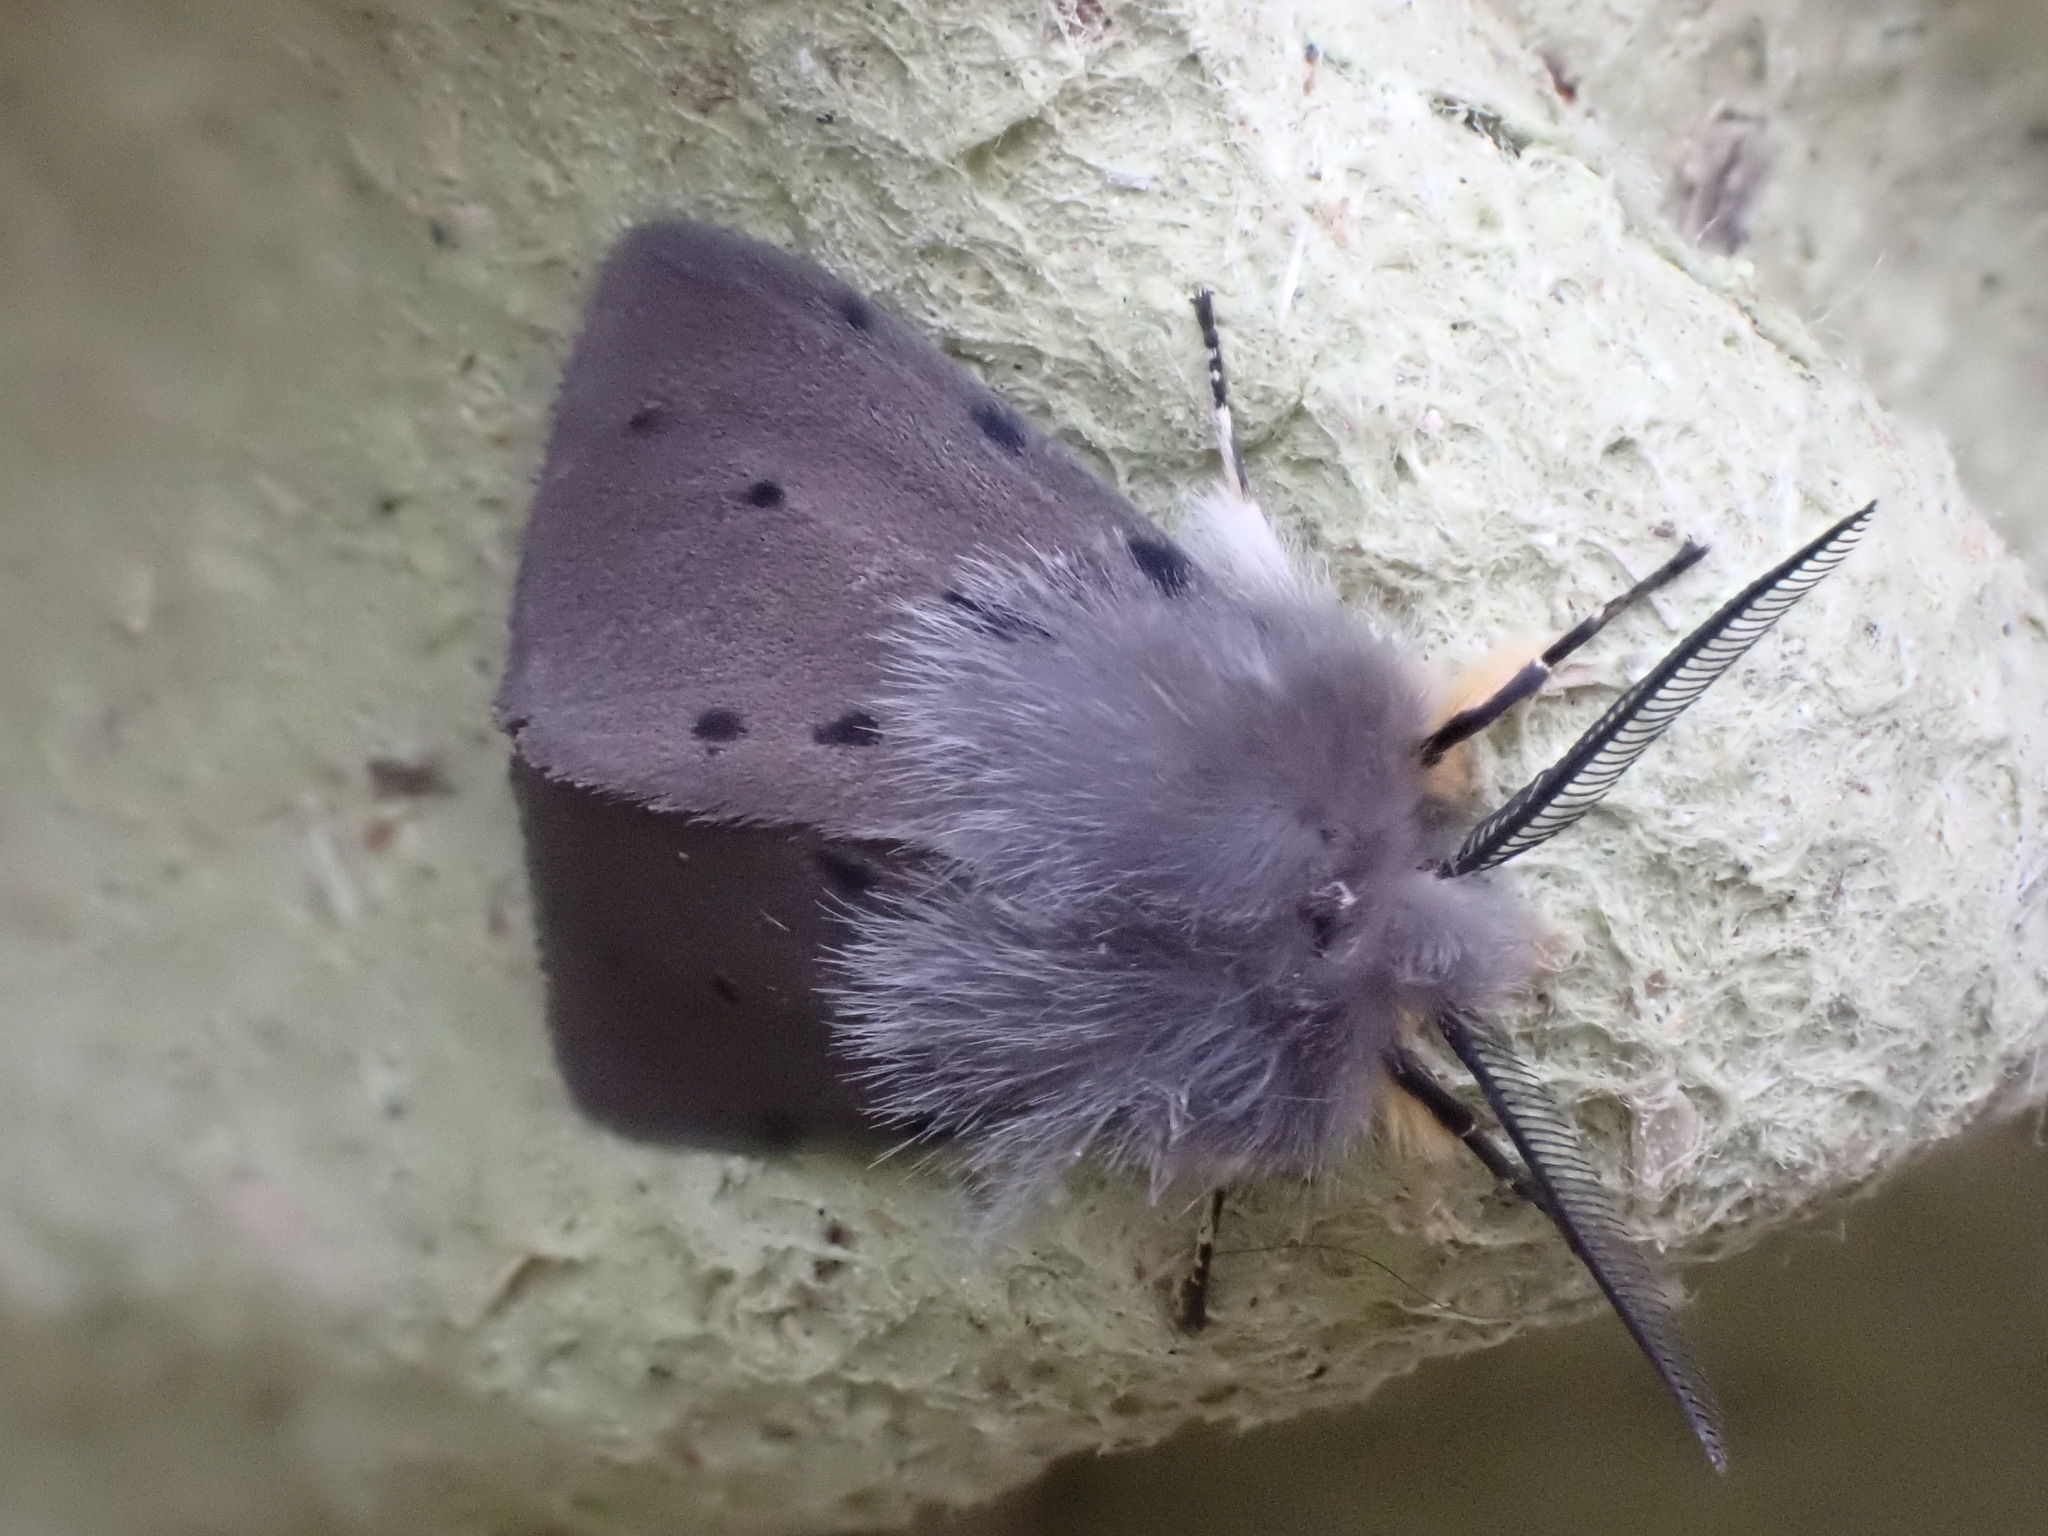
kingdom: Animalia
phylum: Arthropoda
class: Insecta
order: Lepidoptera
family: Erebidae
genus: Diaphora
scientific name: Diaphora mendica
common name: Muslin moth
